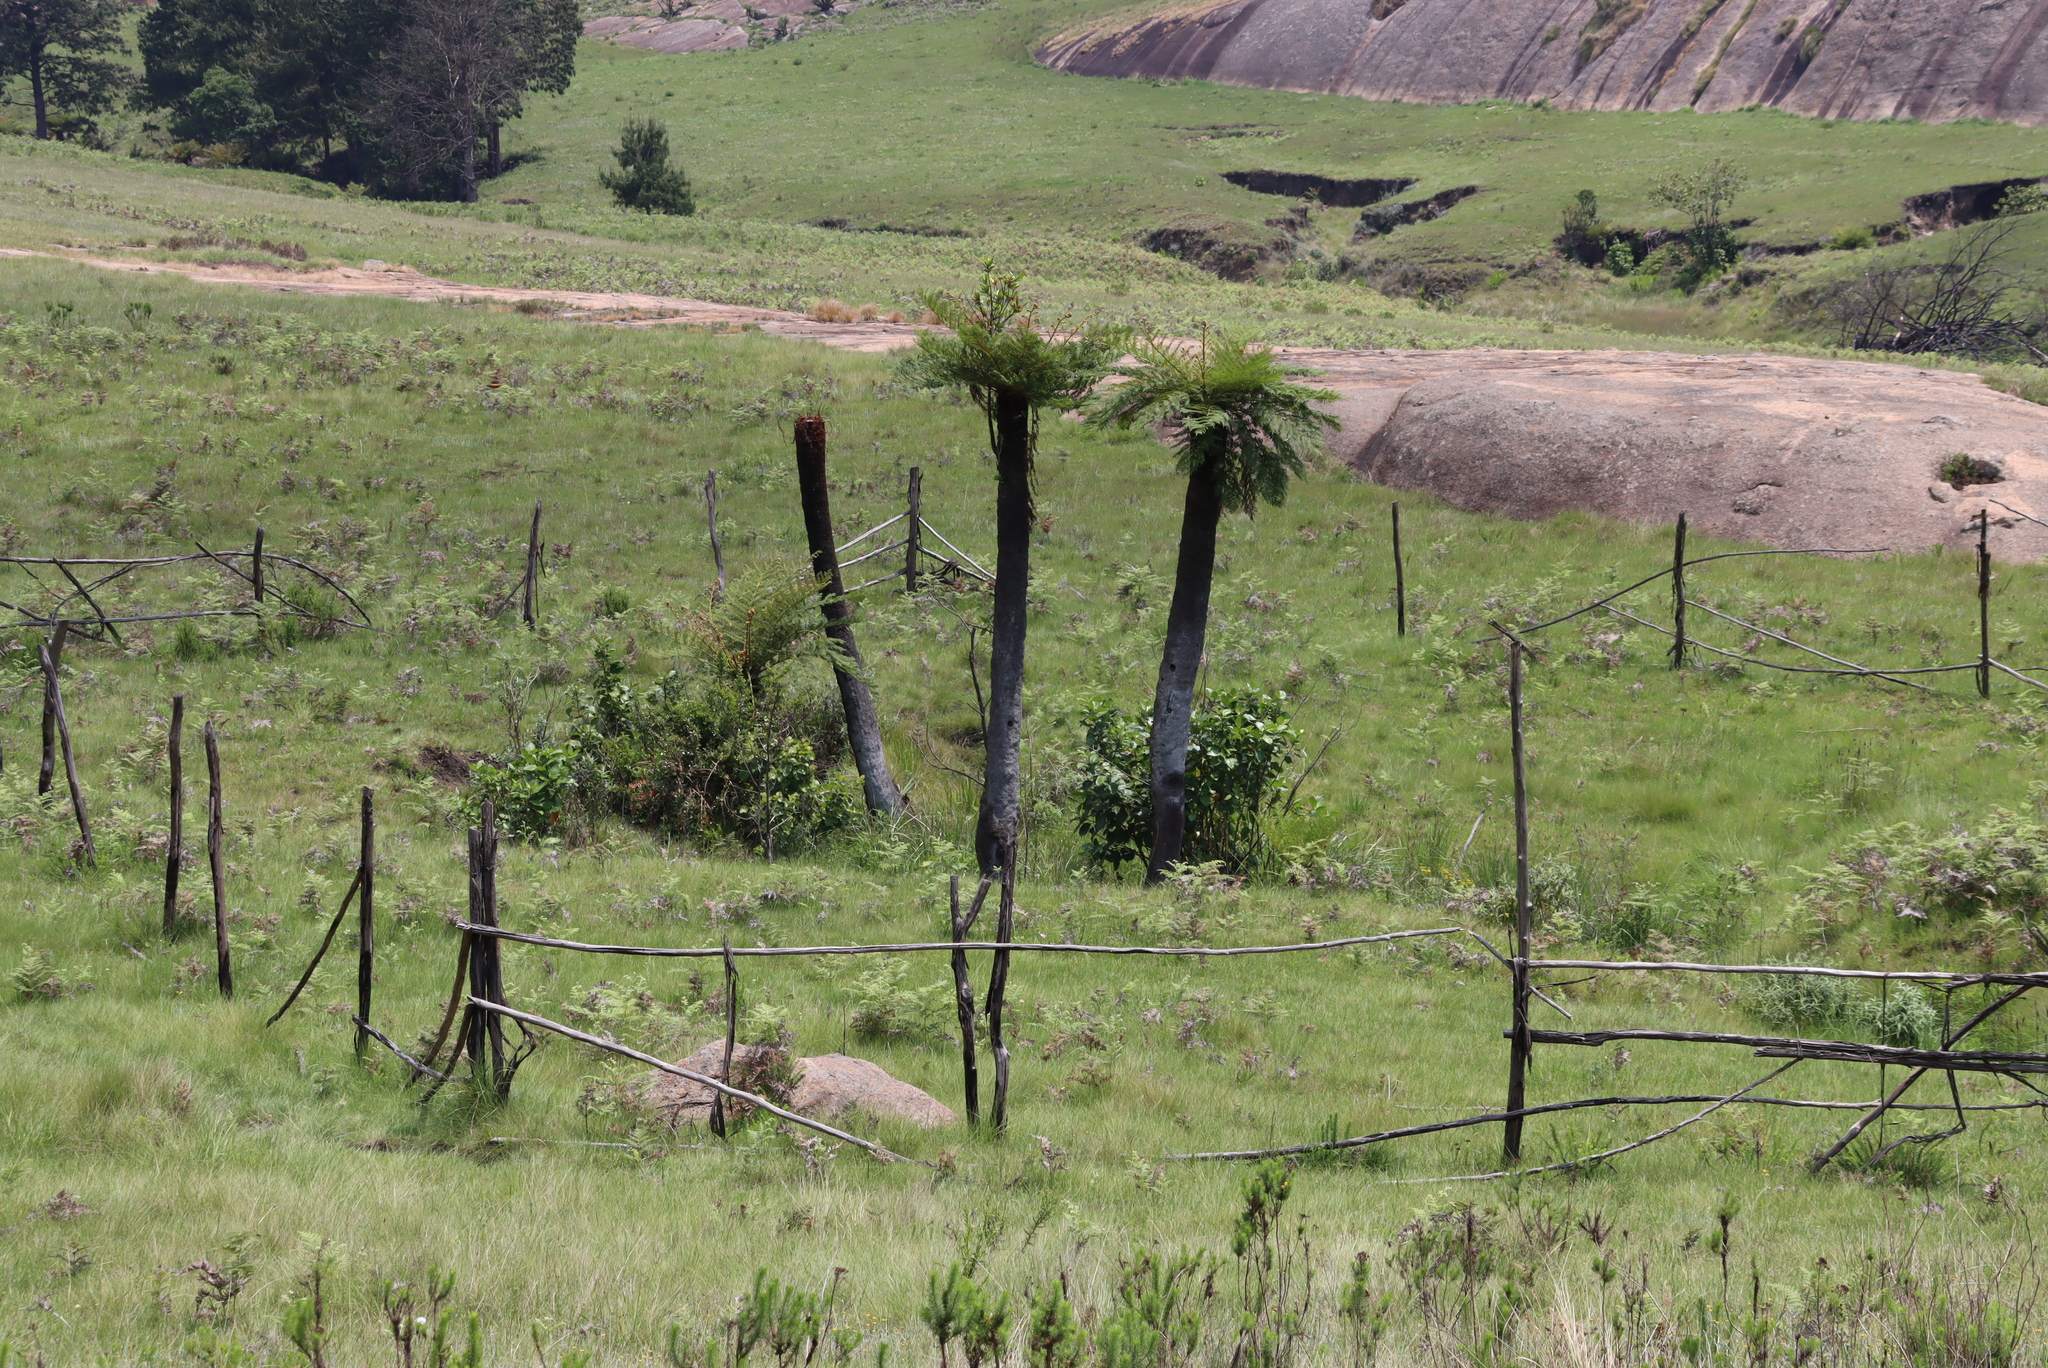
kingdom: Plantae
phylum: Tracheophyta
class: Polypodiopsida
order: Cyatheales
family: Cyatheaceae
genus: Alsophila
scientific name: Alsophila dregei
